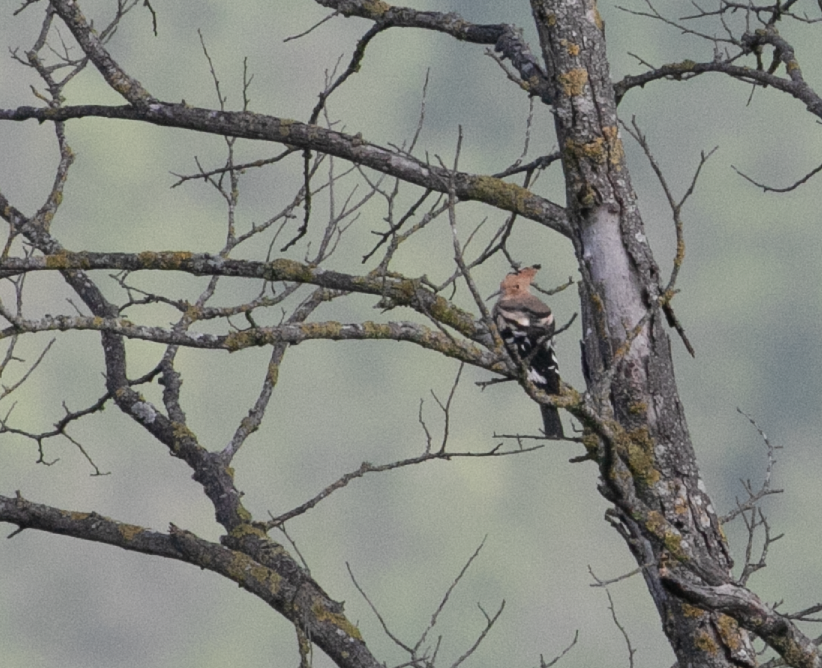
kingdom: Animalia
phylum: Chordata
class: Aves
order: Bucerotiformes
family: Upupidae
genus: Upupa
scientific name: Upupa epops
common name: Eurasian hoopoe
